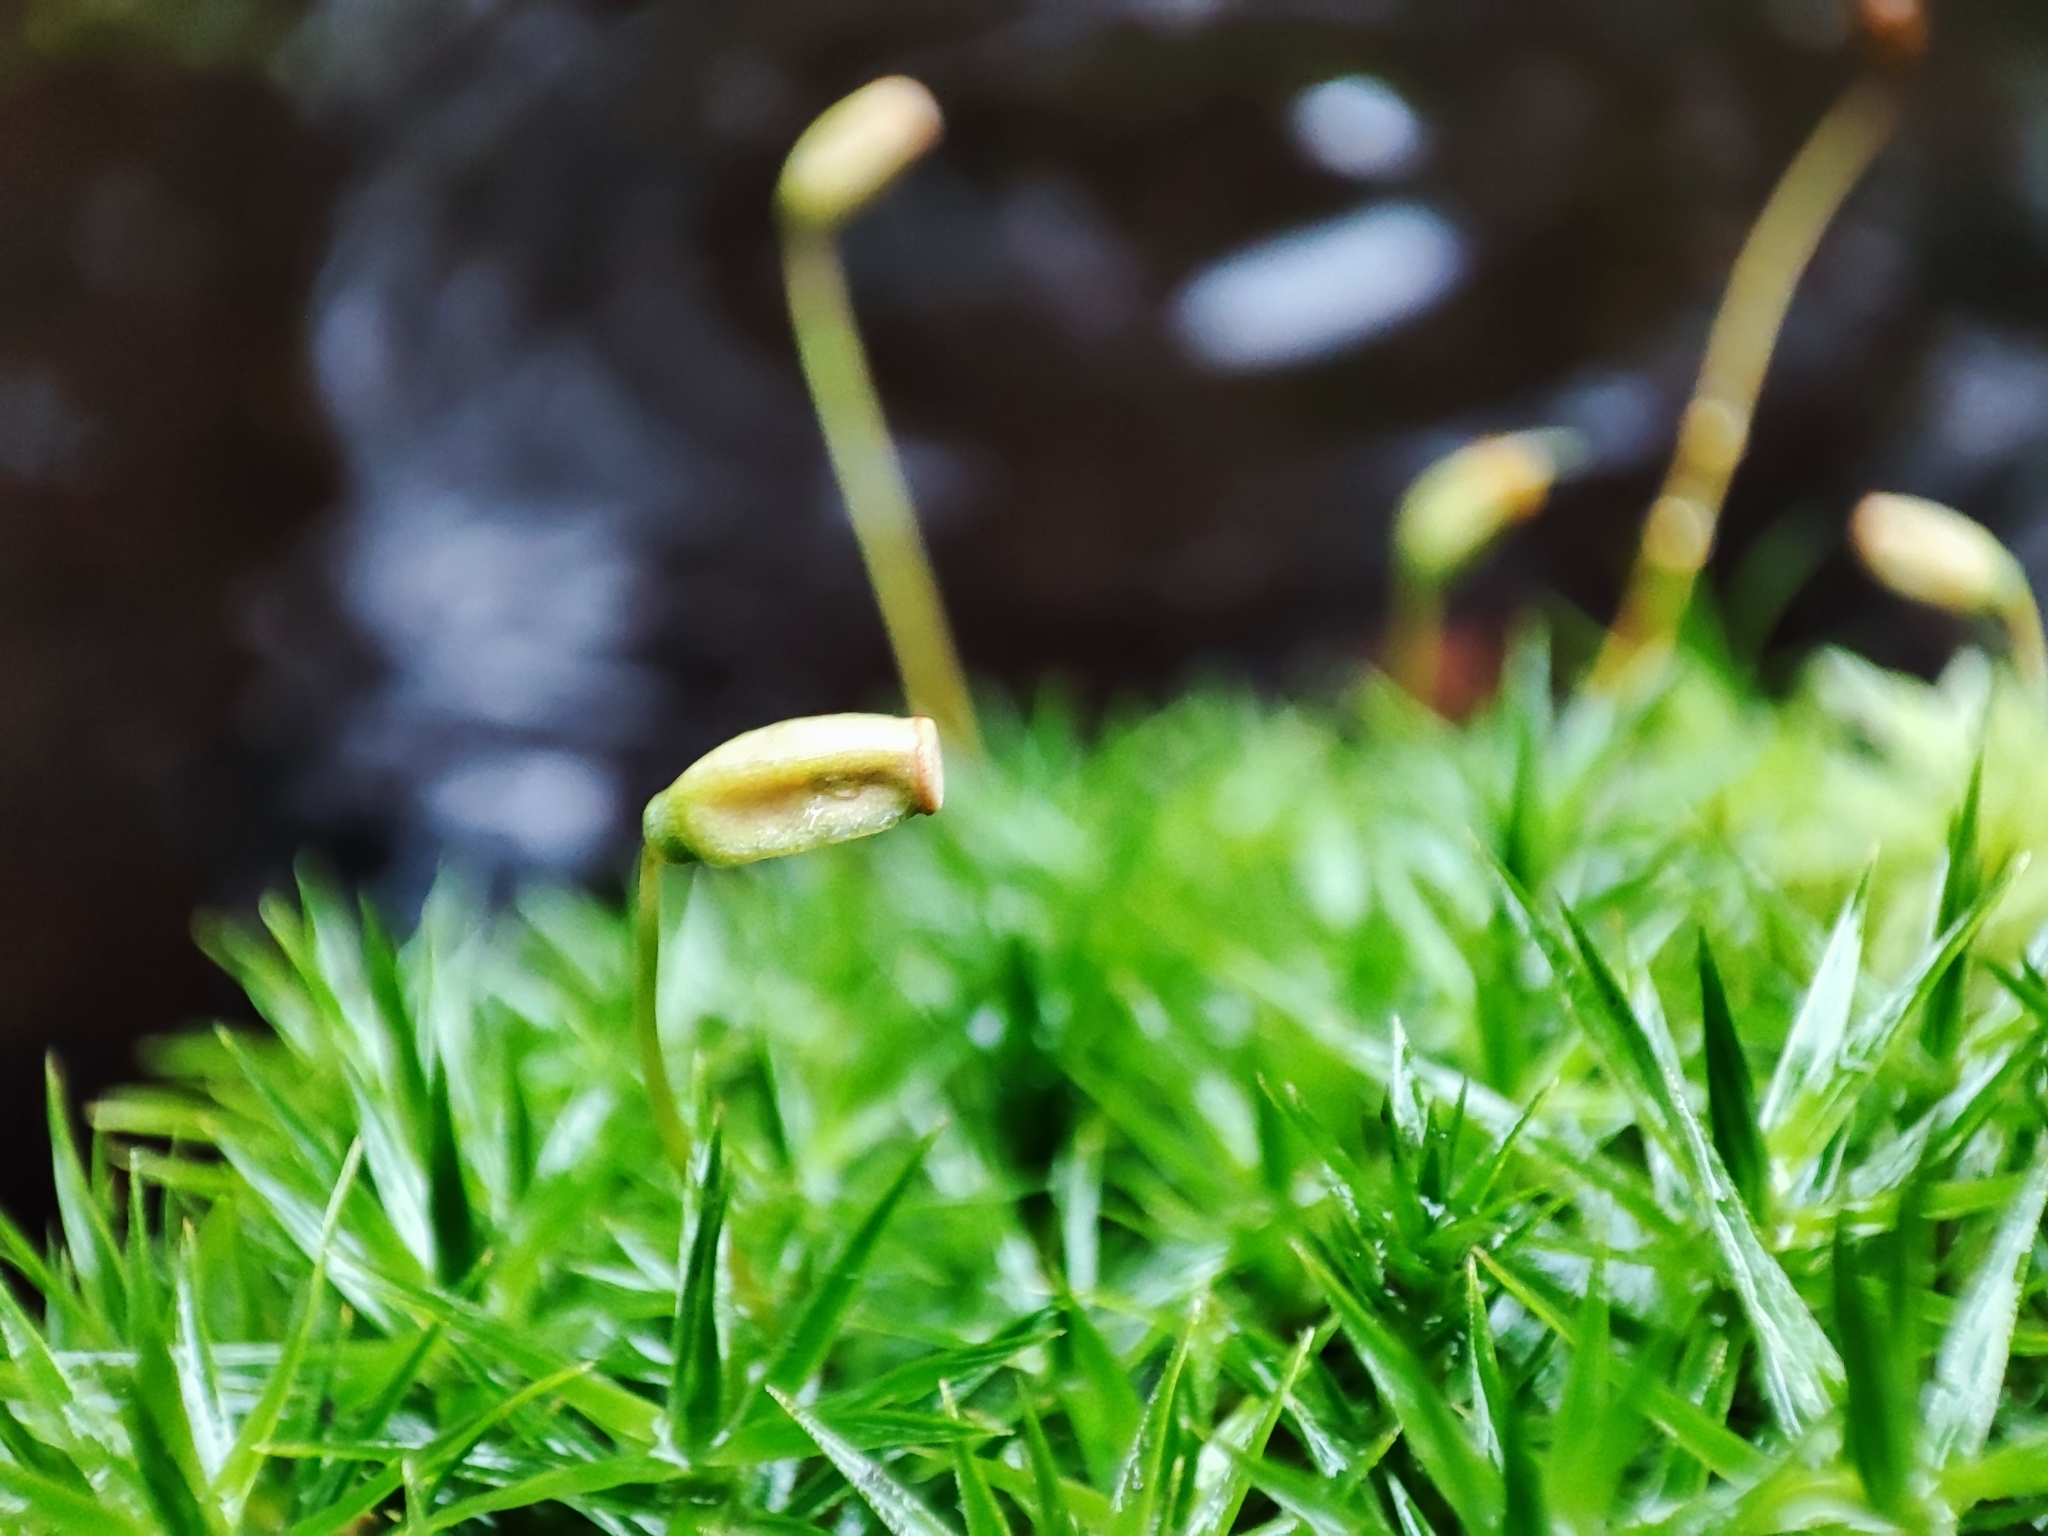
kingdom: Plantae
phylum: Bryophyta
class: Polytrichopsida
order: Polytrichales
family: Polytrichaceae
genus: Polytrichum
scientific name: Polytrichum formosum
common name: Bank haircap moss
